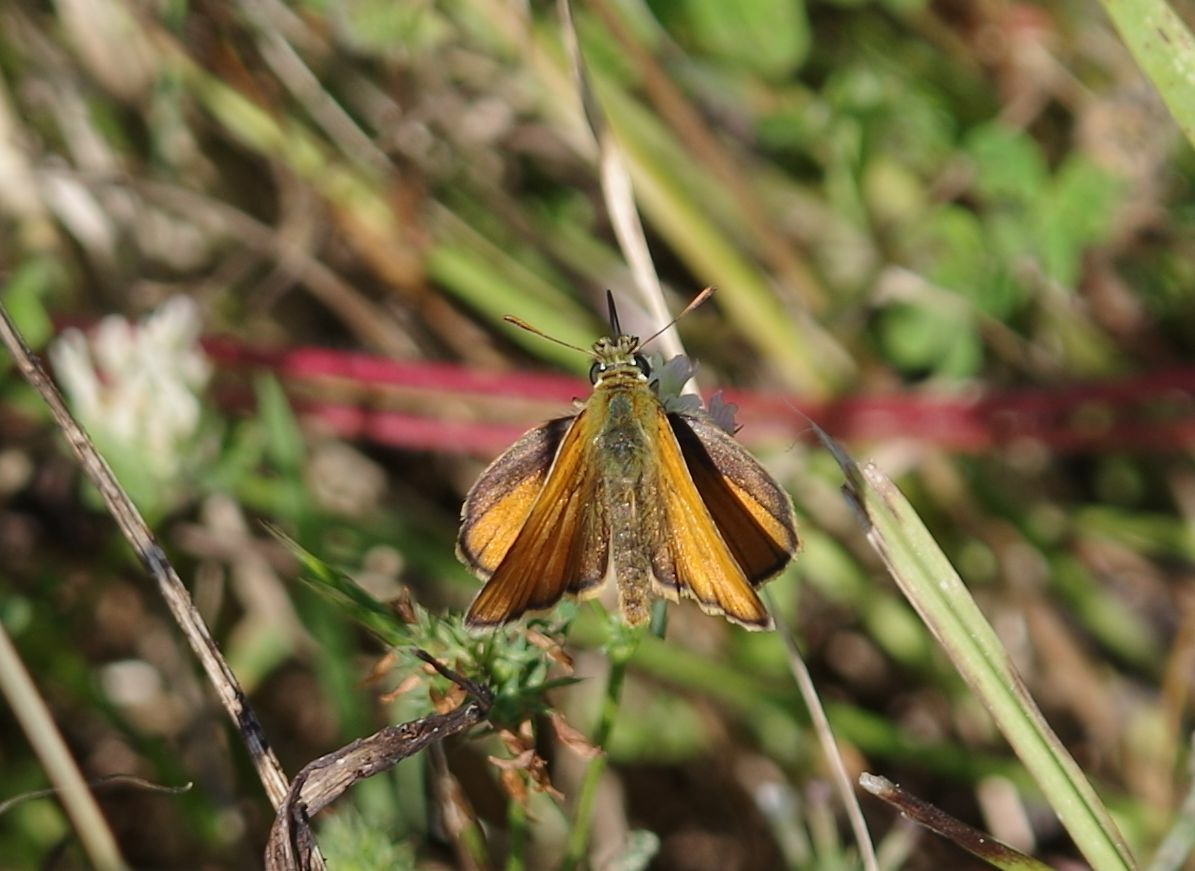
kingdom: Animalia
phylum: Arthropoda
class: Insecta
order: Lepidoptera
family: Hesperiidae
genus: Thymelicus
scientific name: Thymelicus sylvestris
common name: Small skipper
